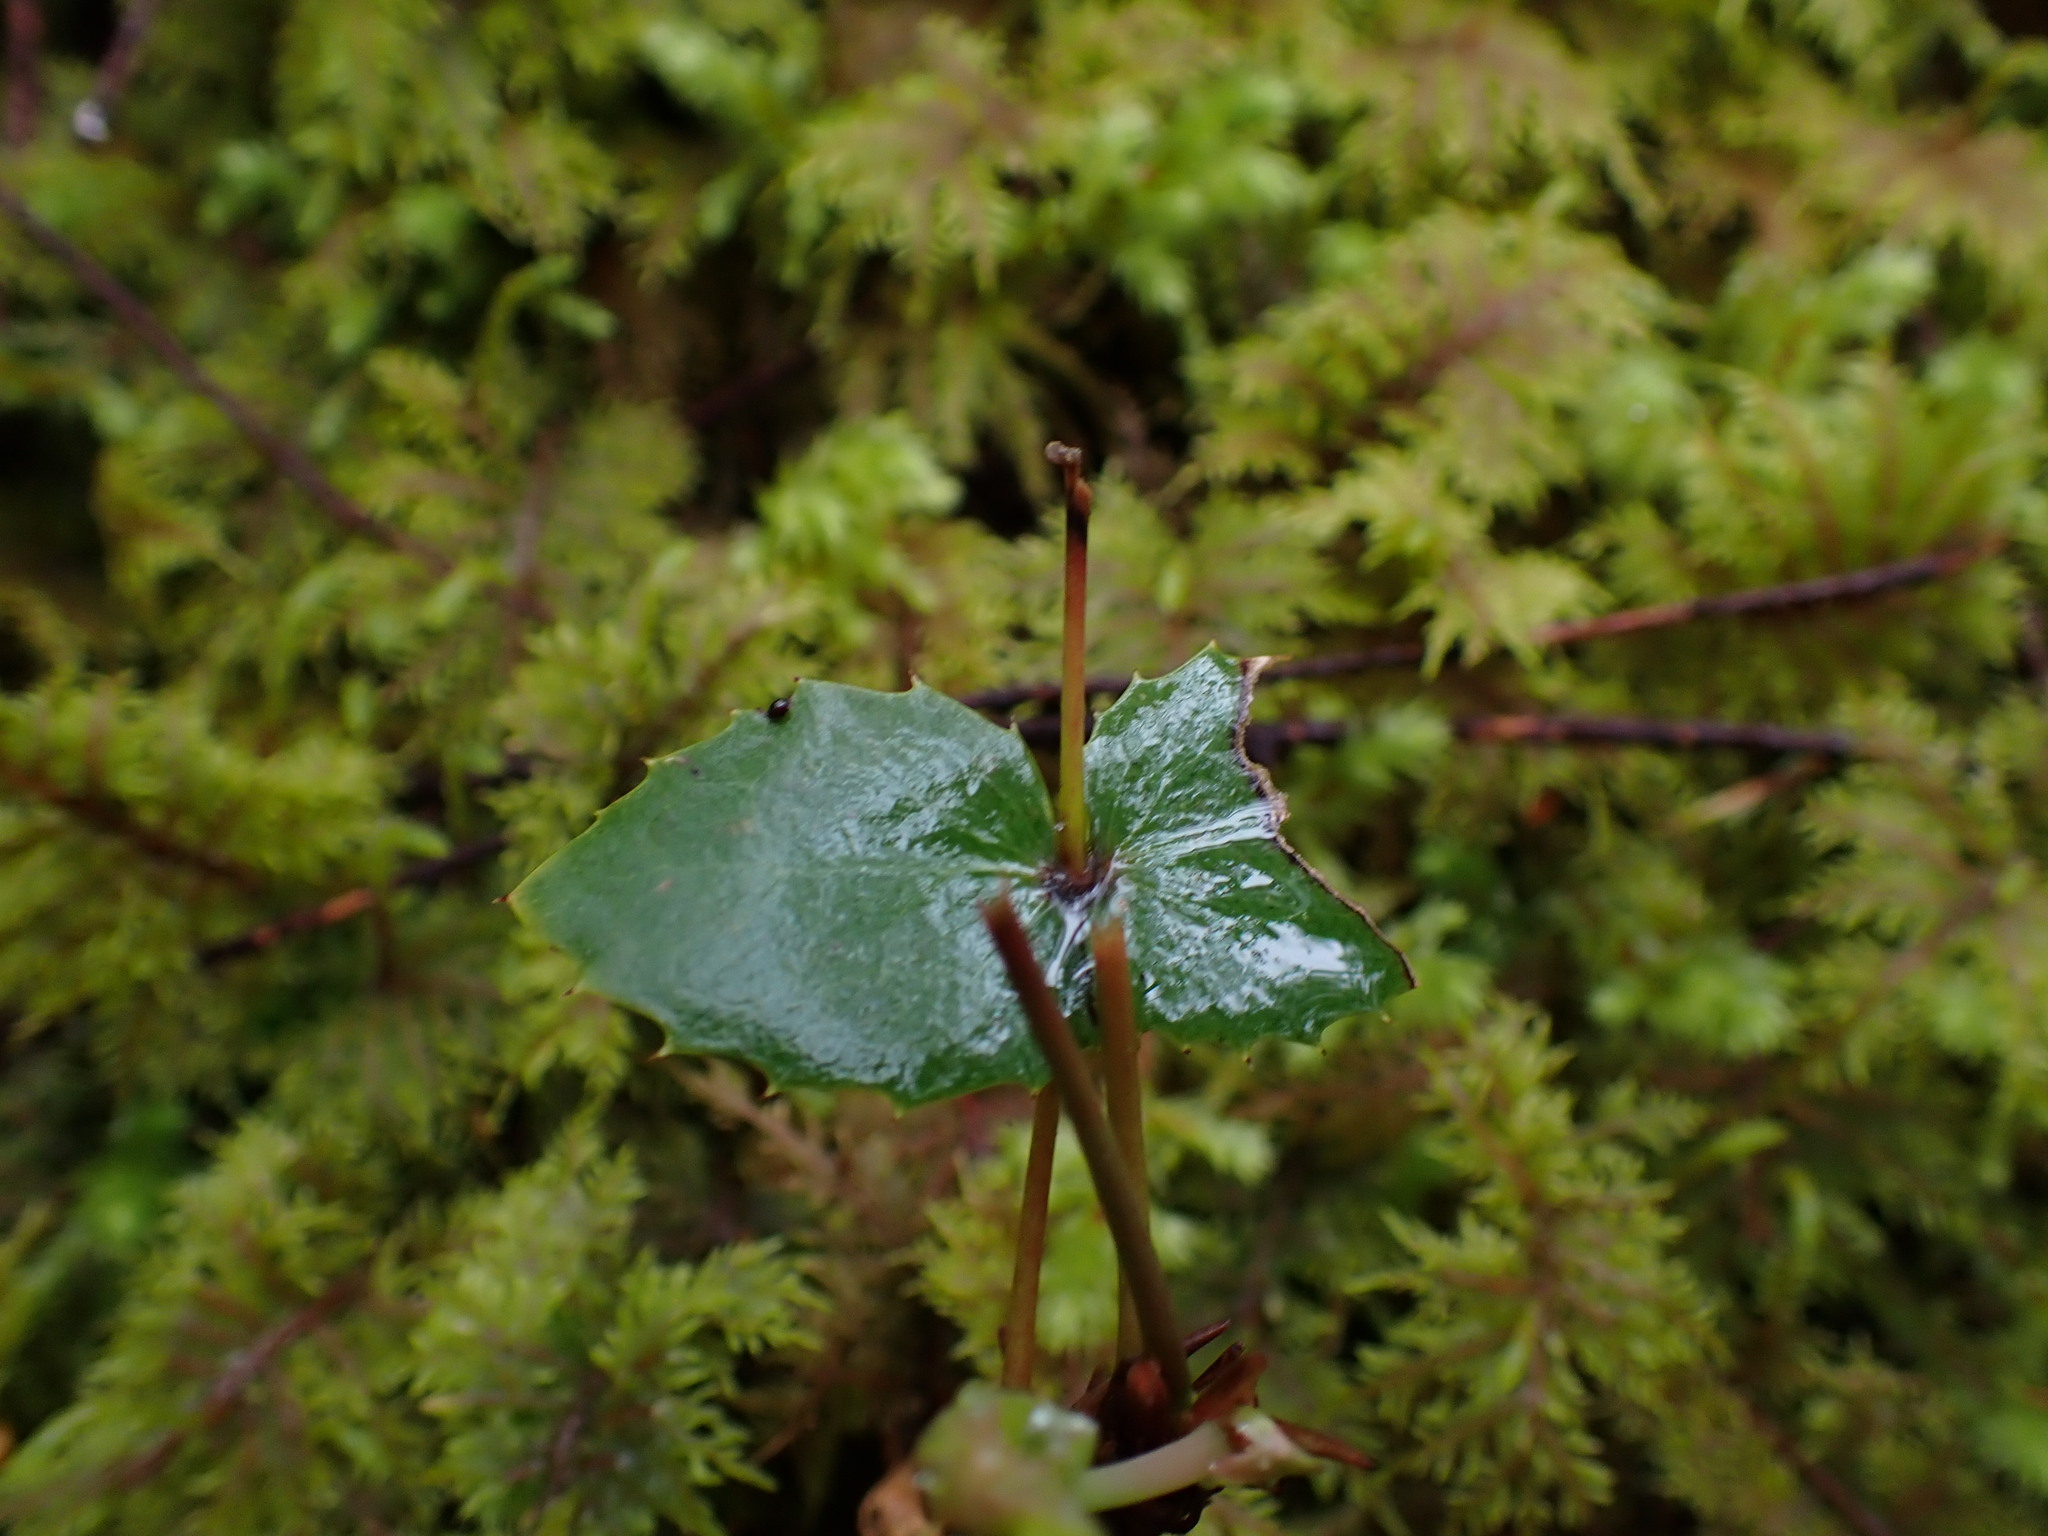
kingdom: Plantae
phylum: Tracheophyta
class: Magnoliopsida
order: Ranunculales
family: Berberidaceae
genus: Mahonia
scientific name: Mahonia nervosa
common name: Cascade oregon-grape
